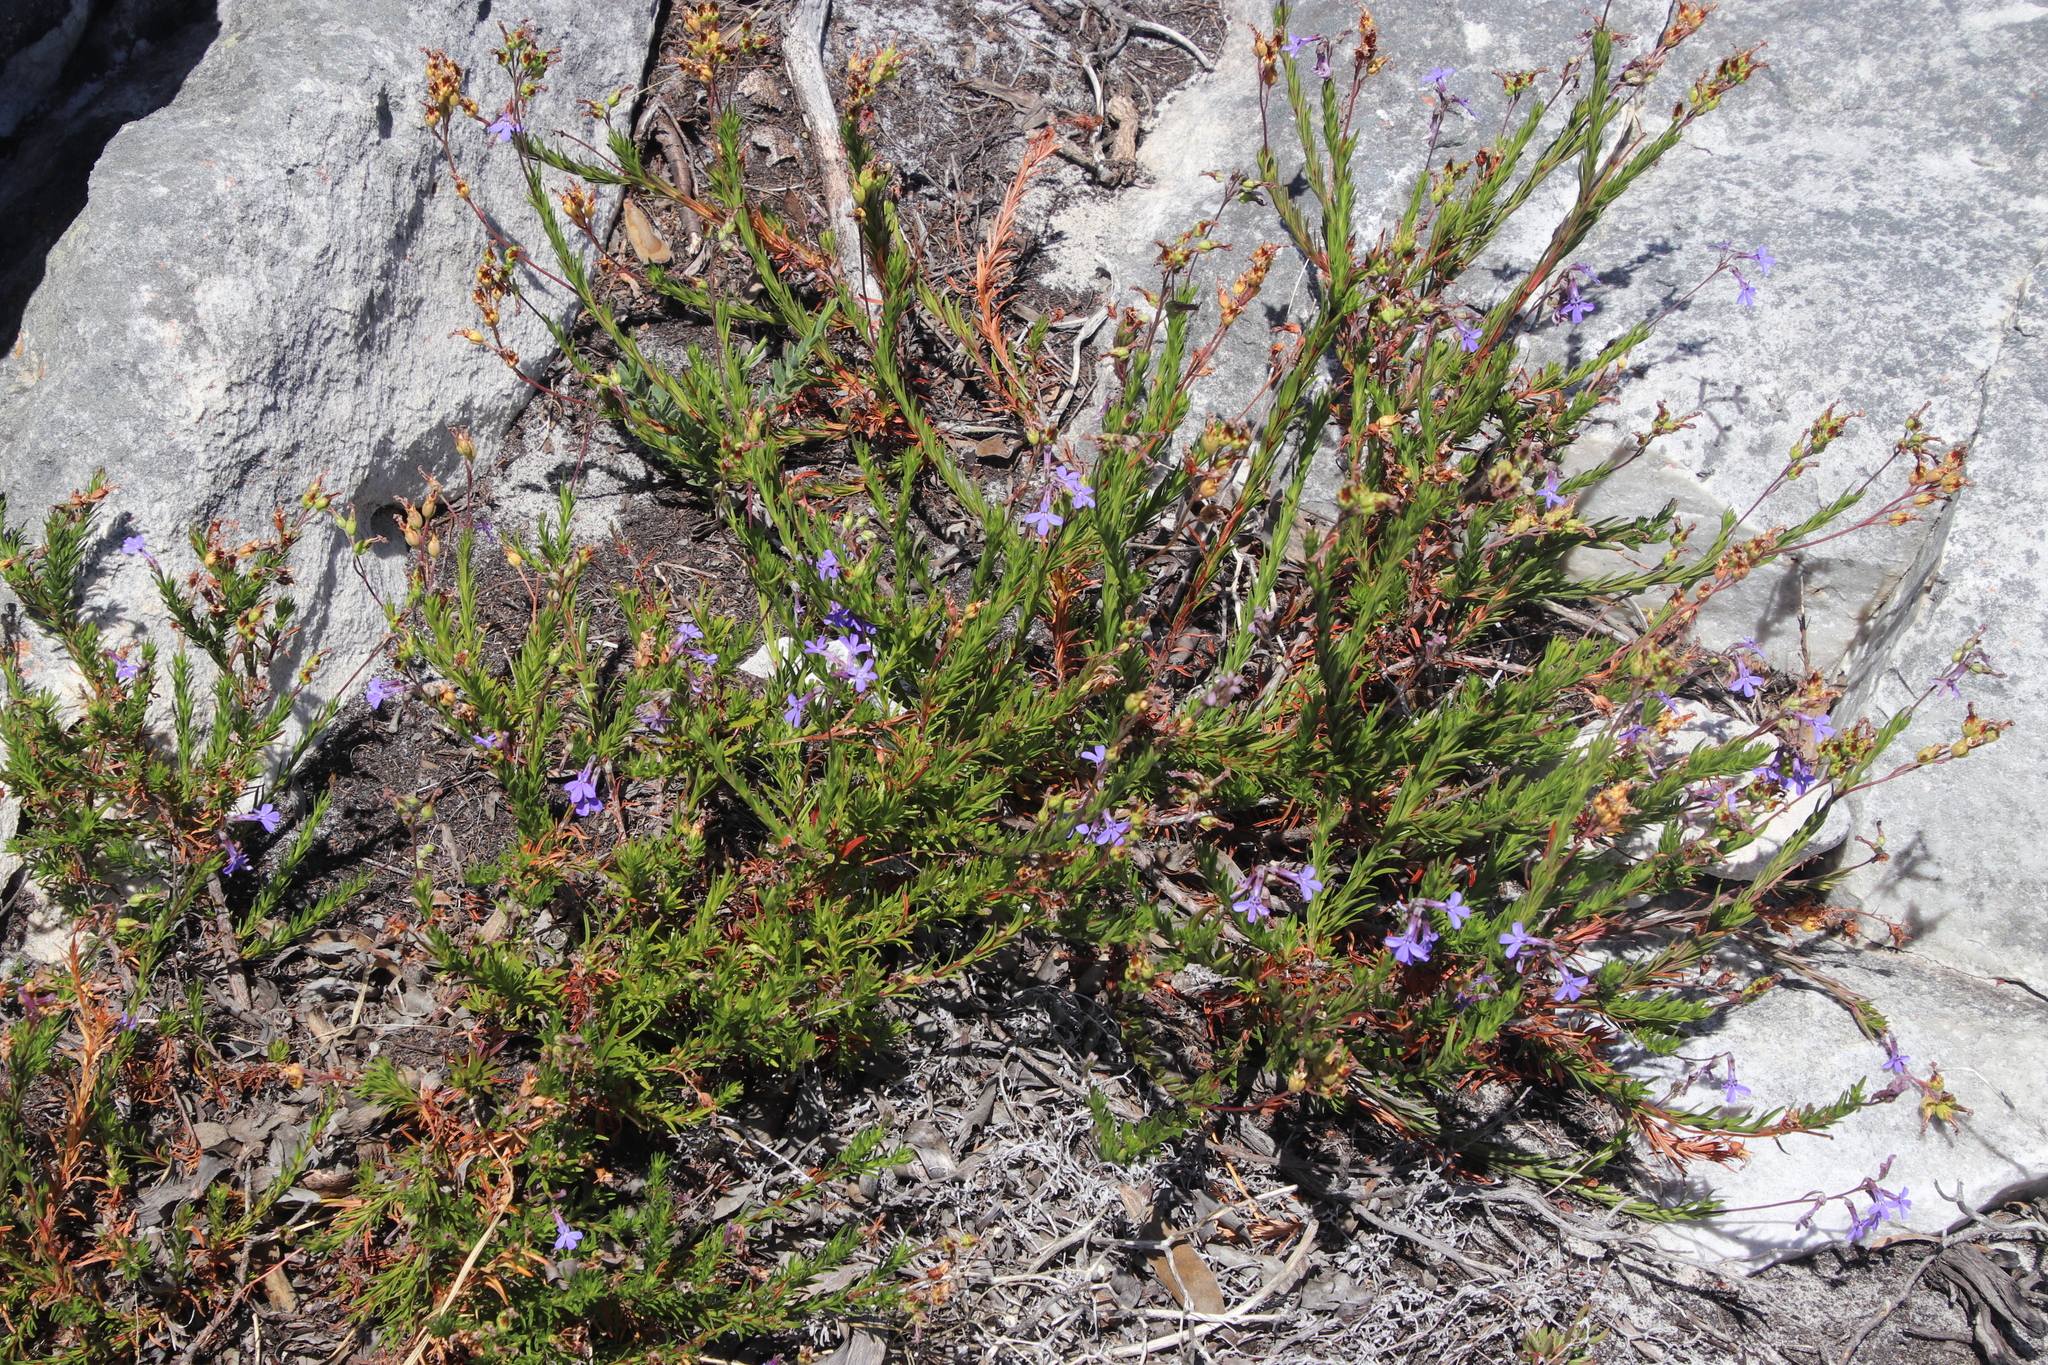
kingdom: Plantae
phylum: Tracheophyta
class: Magnoliopsida
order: Asterales
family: Campanulaceae
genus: Lobelia
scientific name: Lobelia pinifolia
